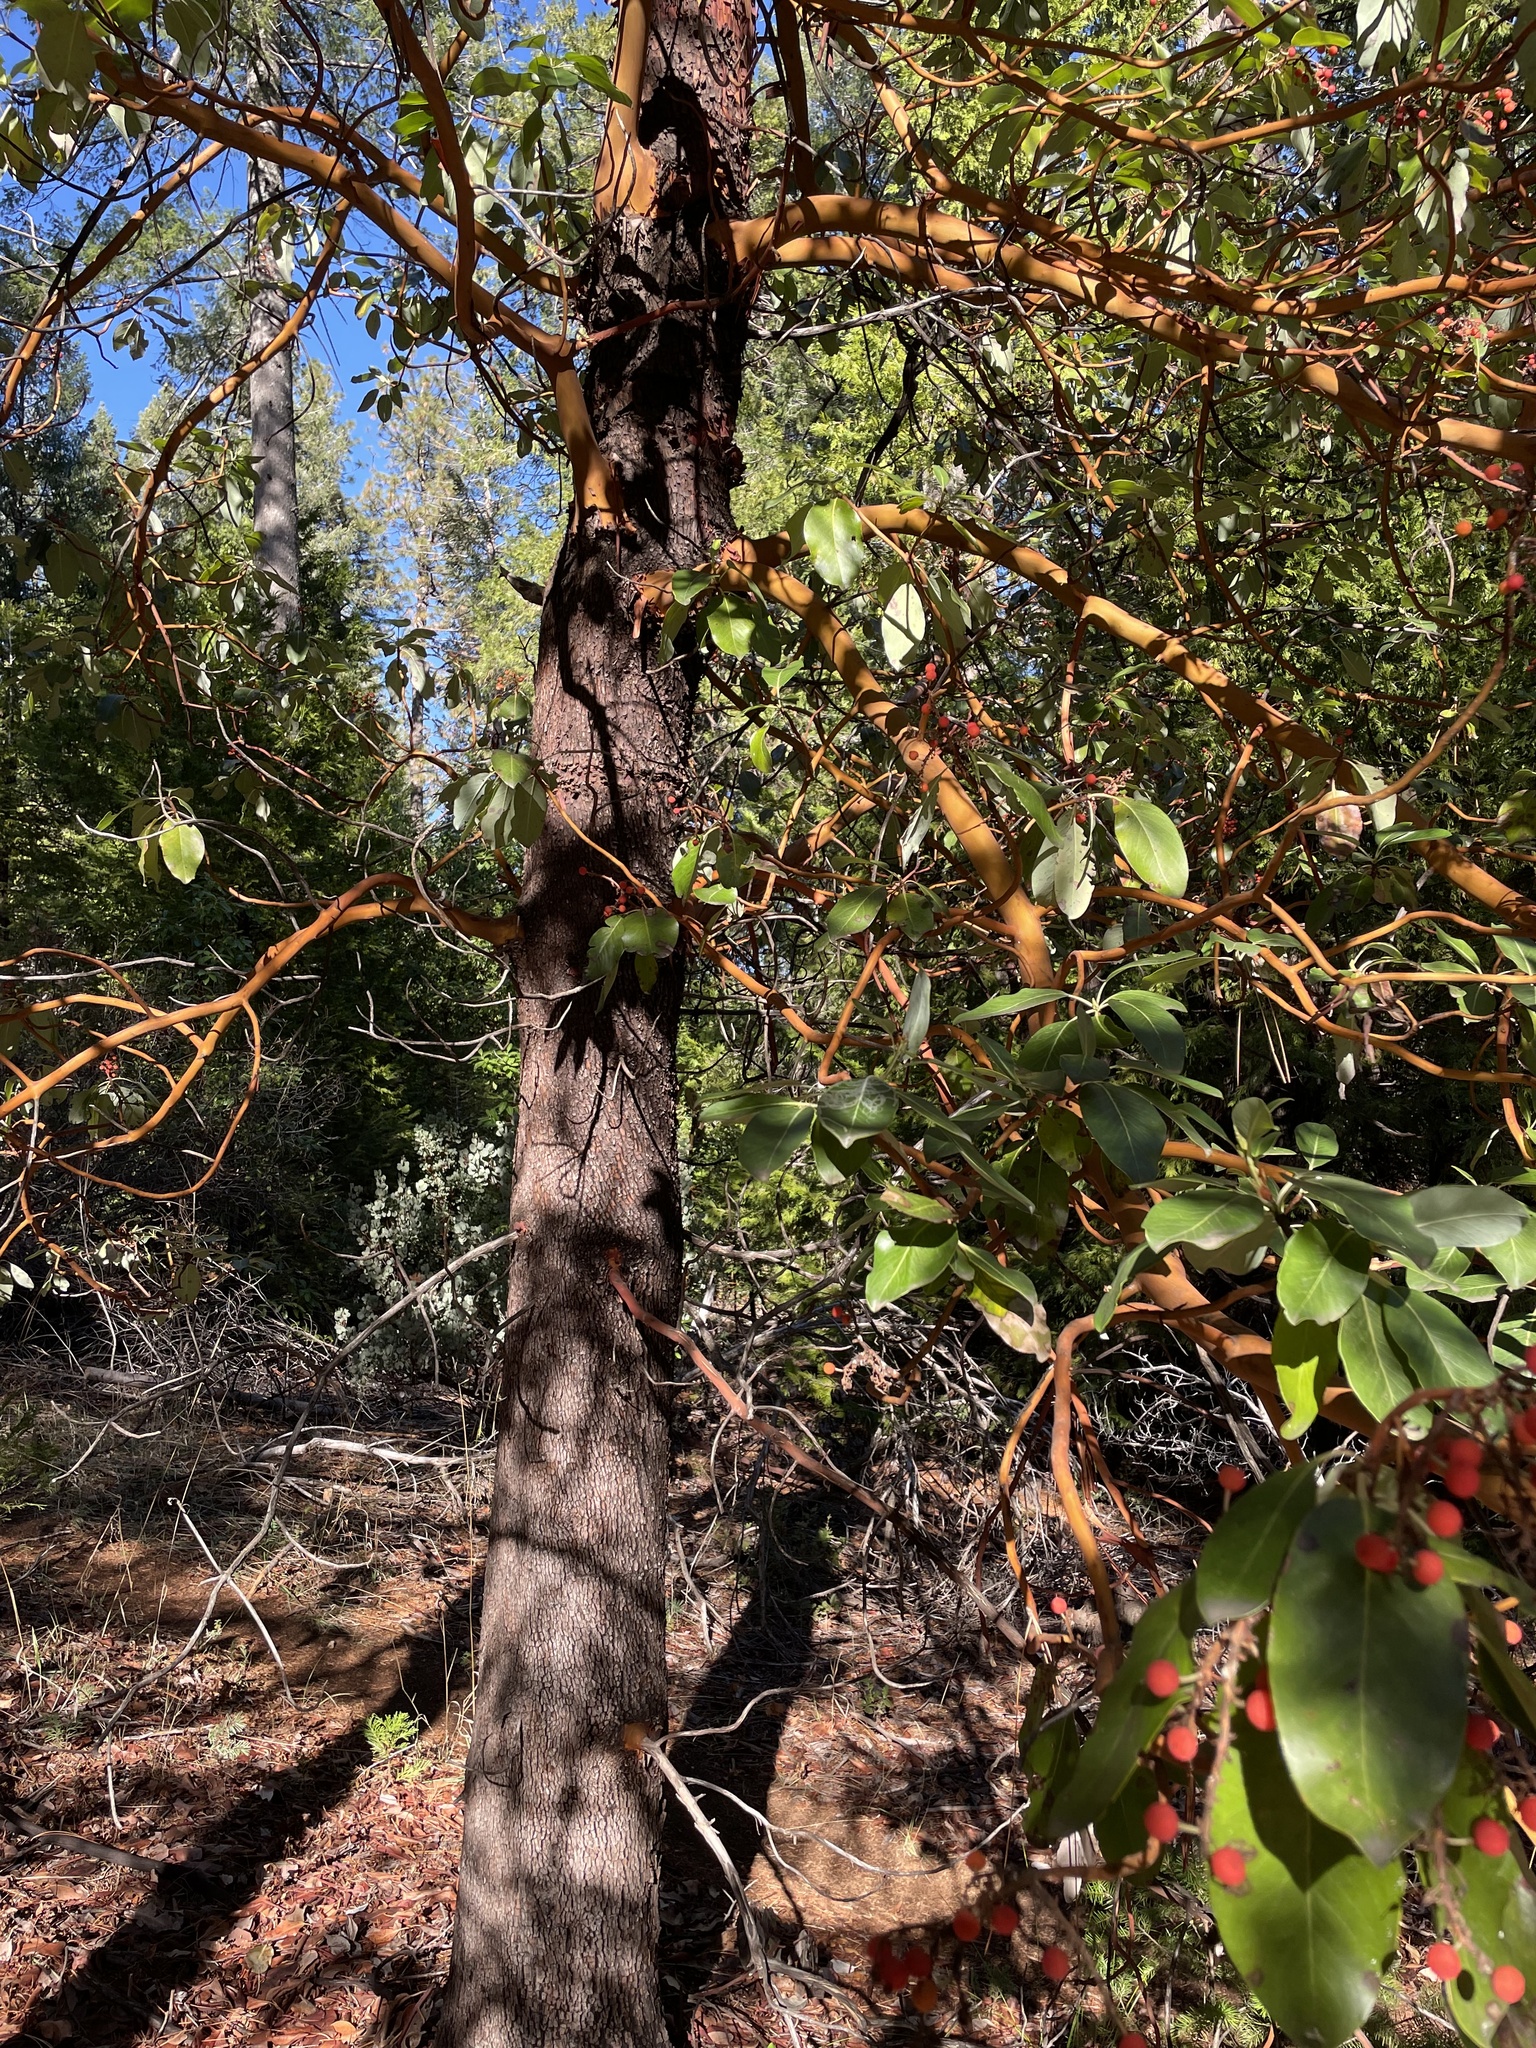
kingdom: Plantae
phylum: Tracheophyta
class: Magnoliopsida
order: Ericales
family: Ericaceae
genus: Arbutus
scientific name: Arbutus menziesii
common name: Pacific madrone
